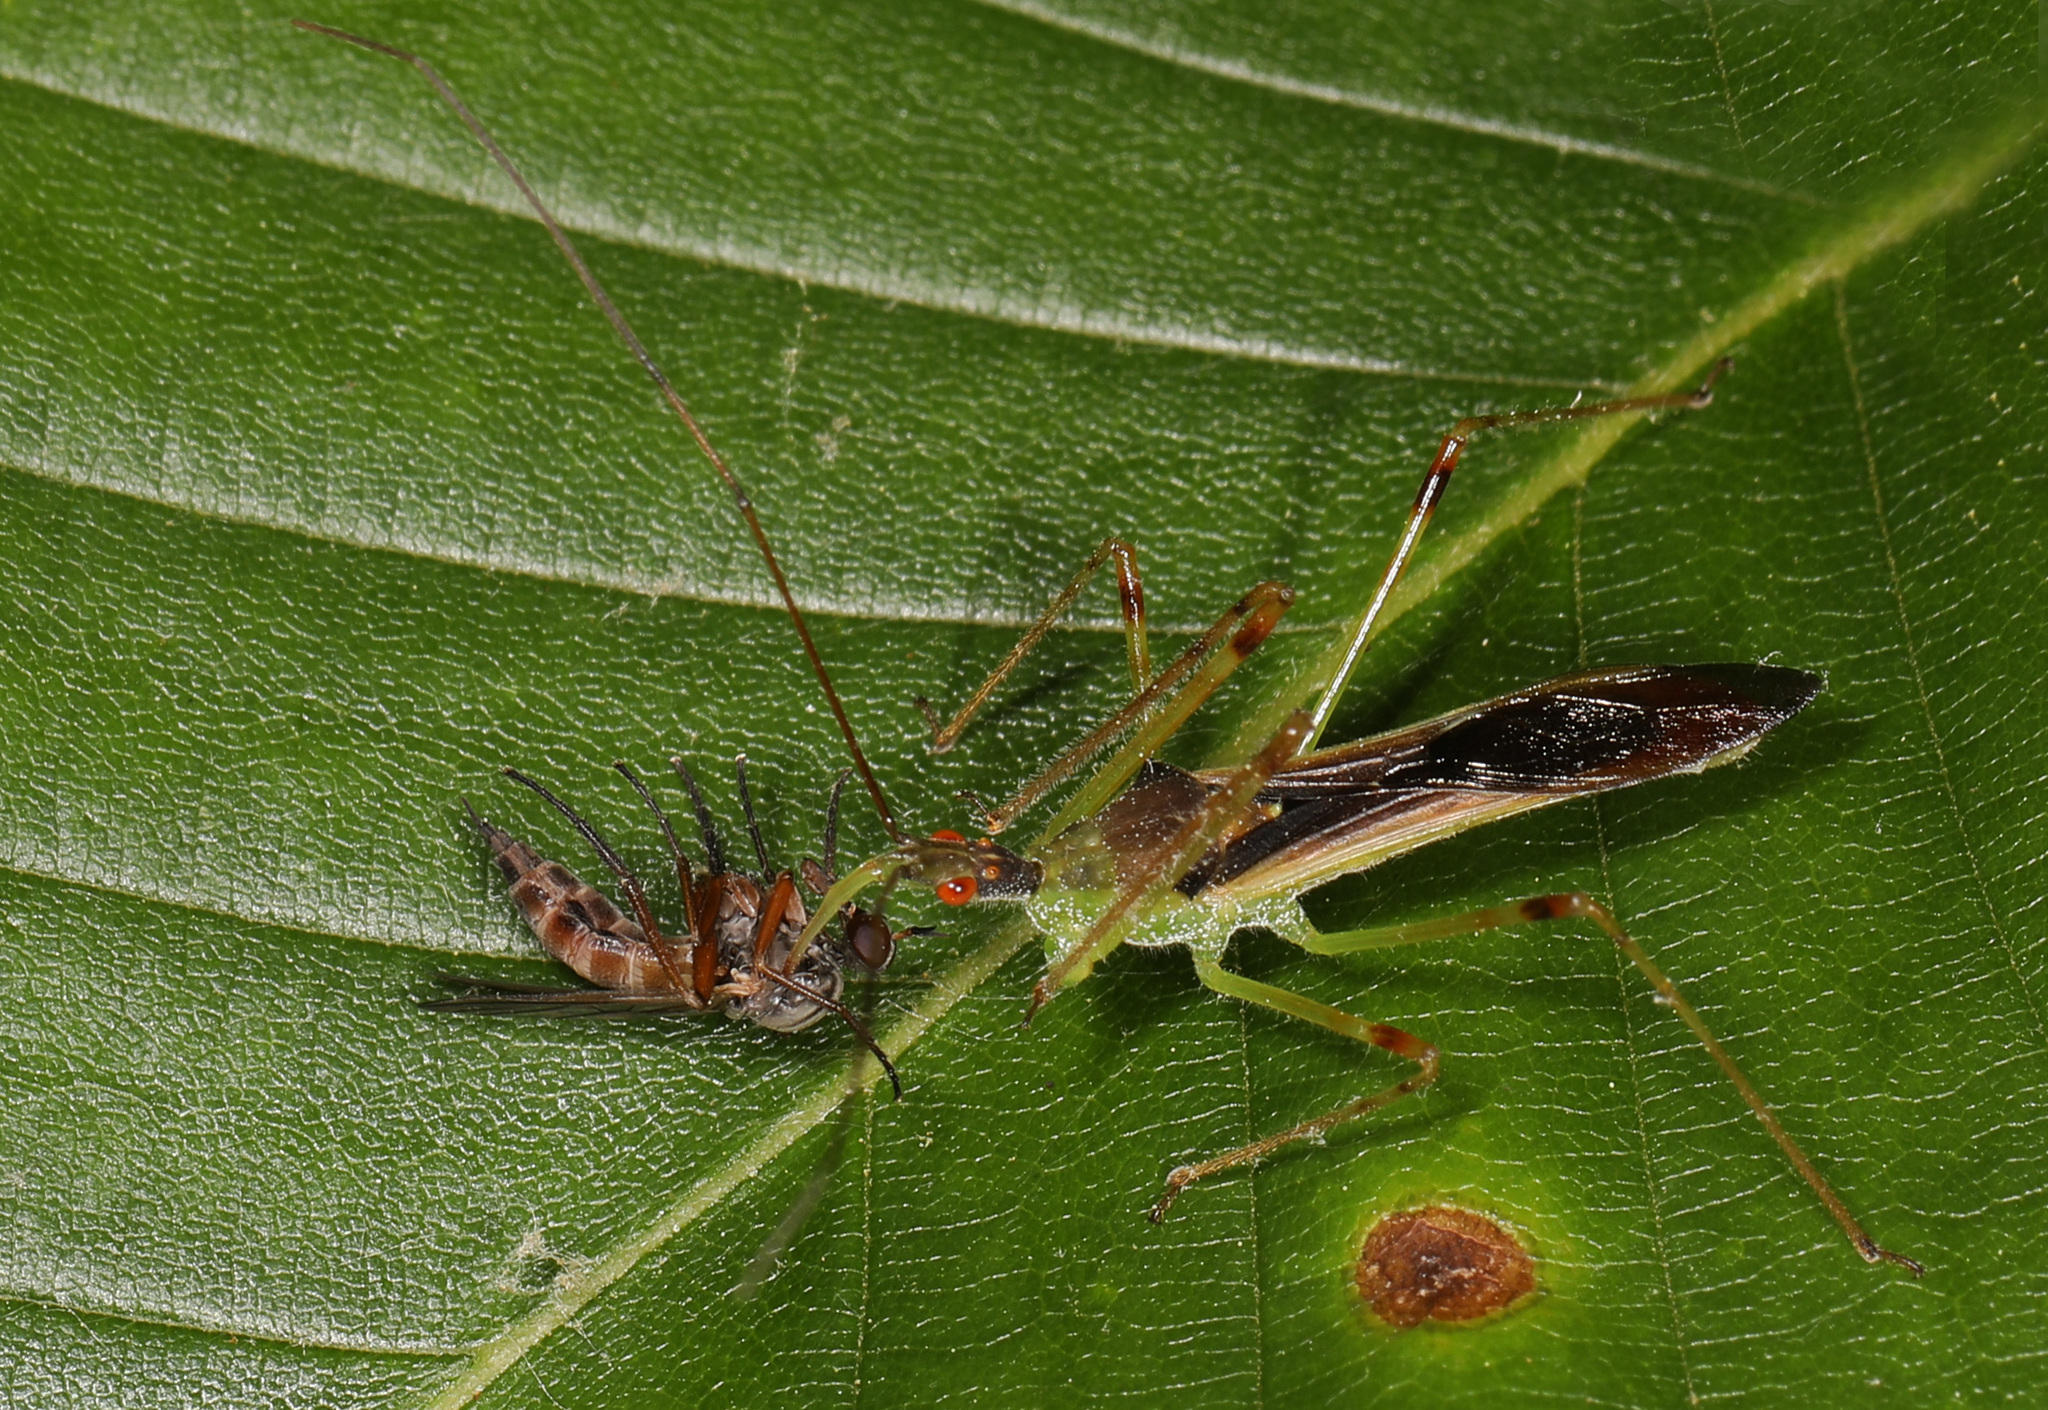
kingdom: Animalia
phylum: Arthropoda
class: Insecta
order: Hemiptera
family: Reduviidae
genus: Zelus
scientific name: Zelus luridus
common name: Pale green assassin bug
